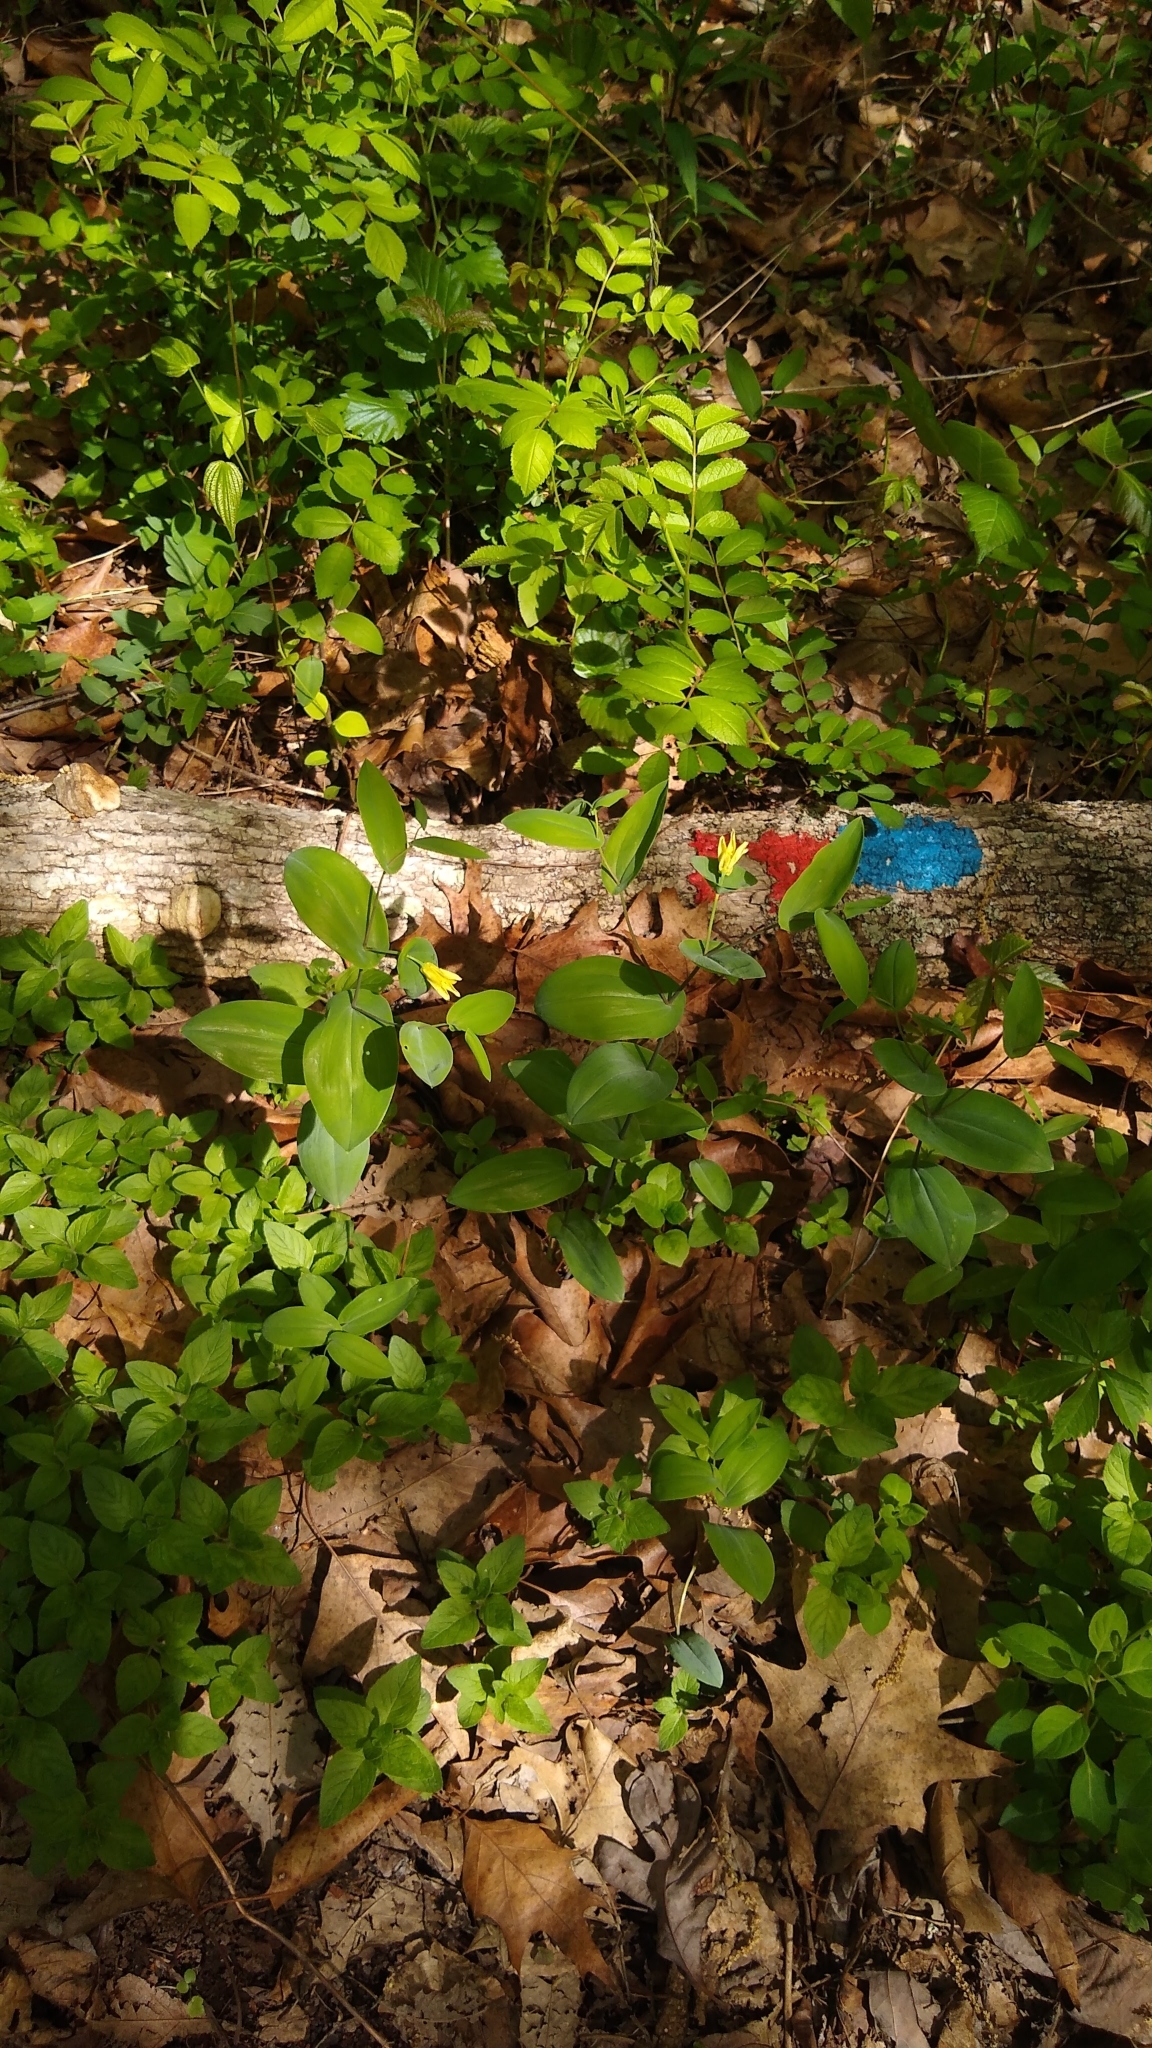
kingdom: Plantae
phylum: Tracheophyta
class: Liliopsida
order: Liliales
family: Colchicaceae
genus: Uvularia
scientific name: Uvularia perfoliata
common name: Perfoliate bellwort
